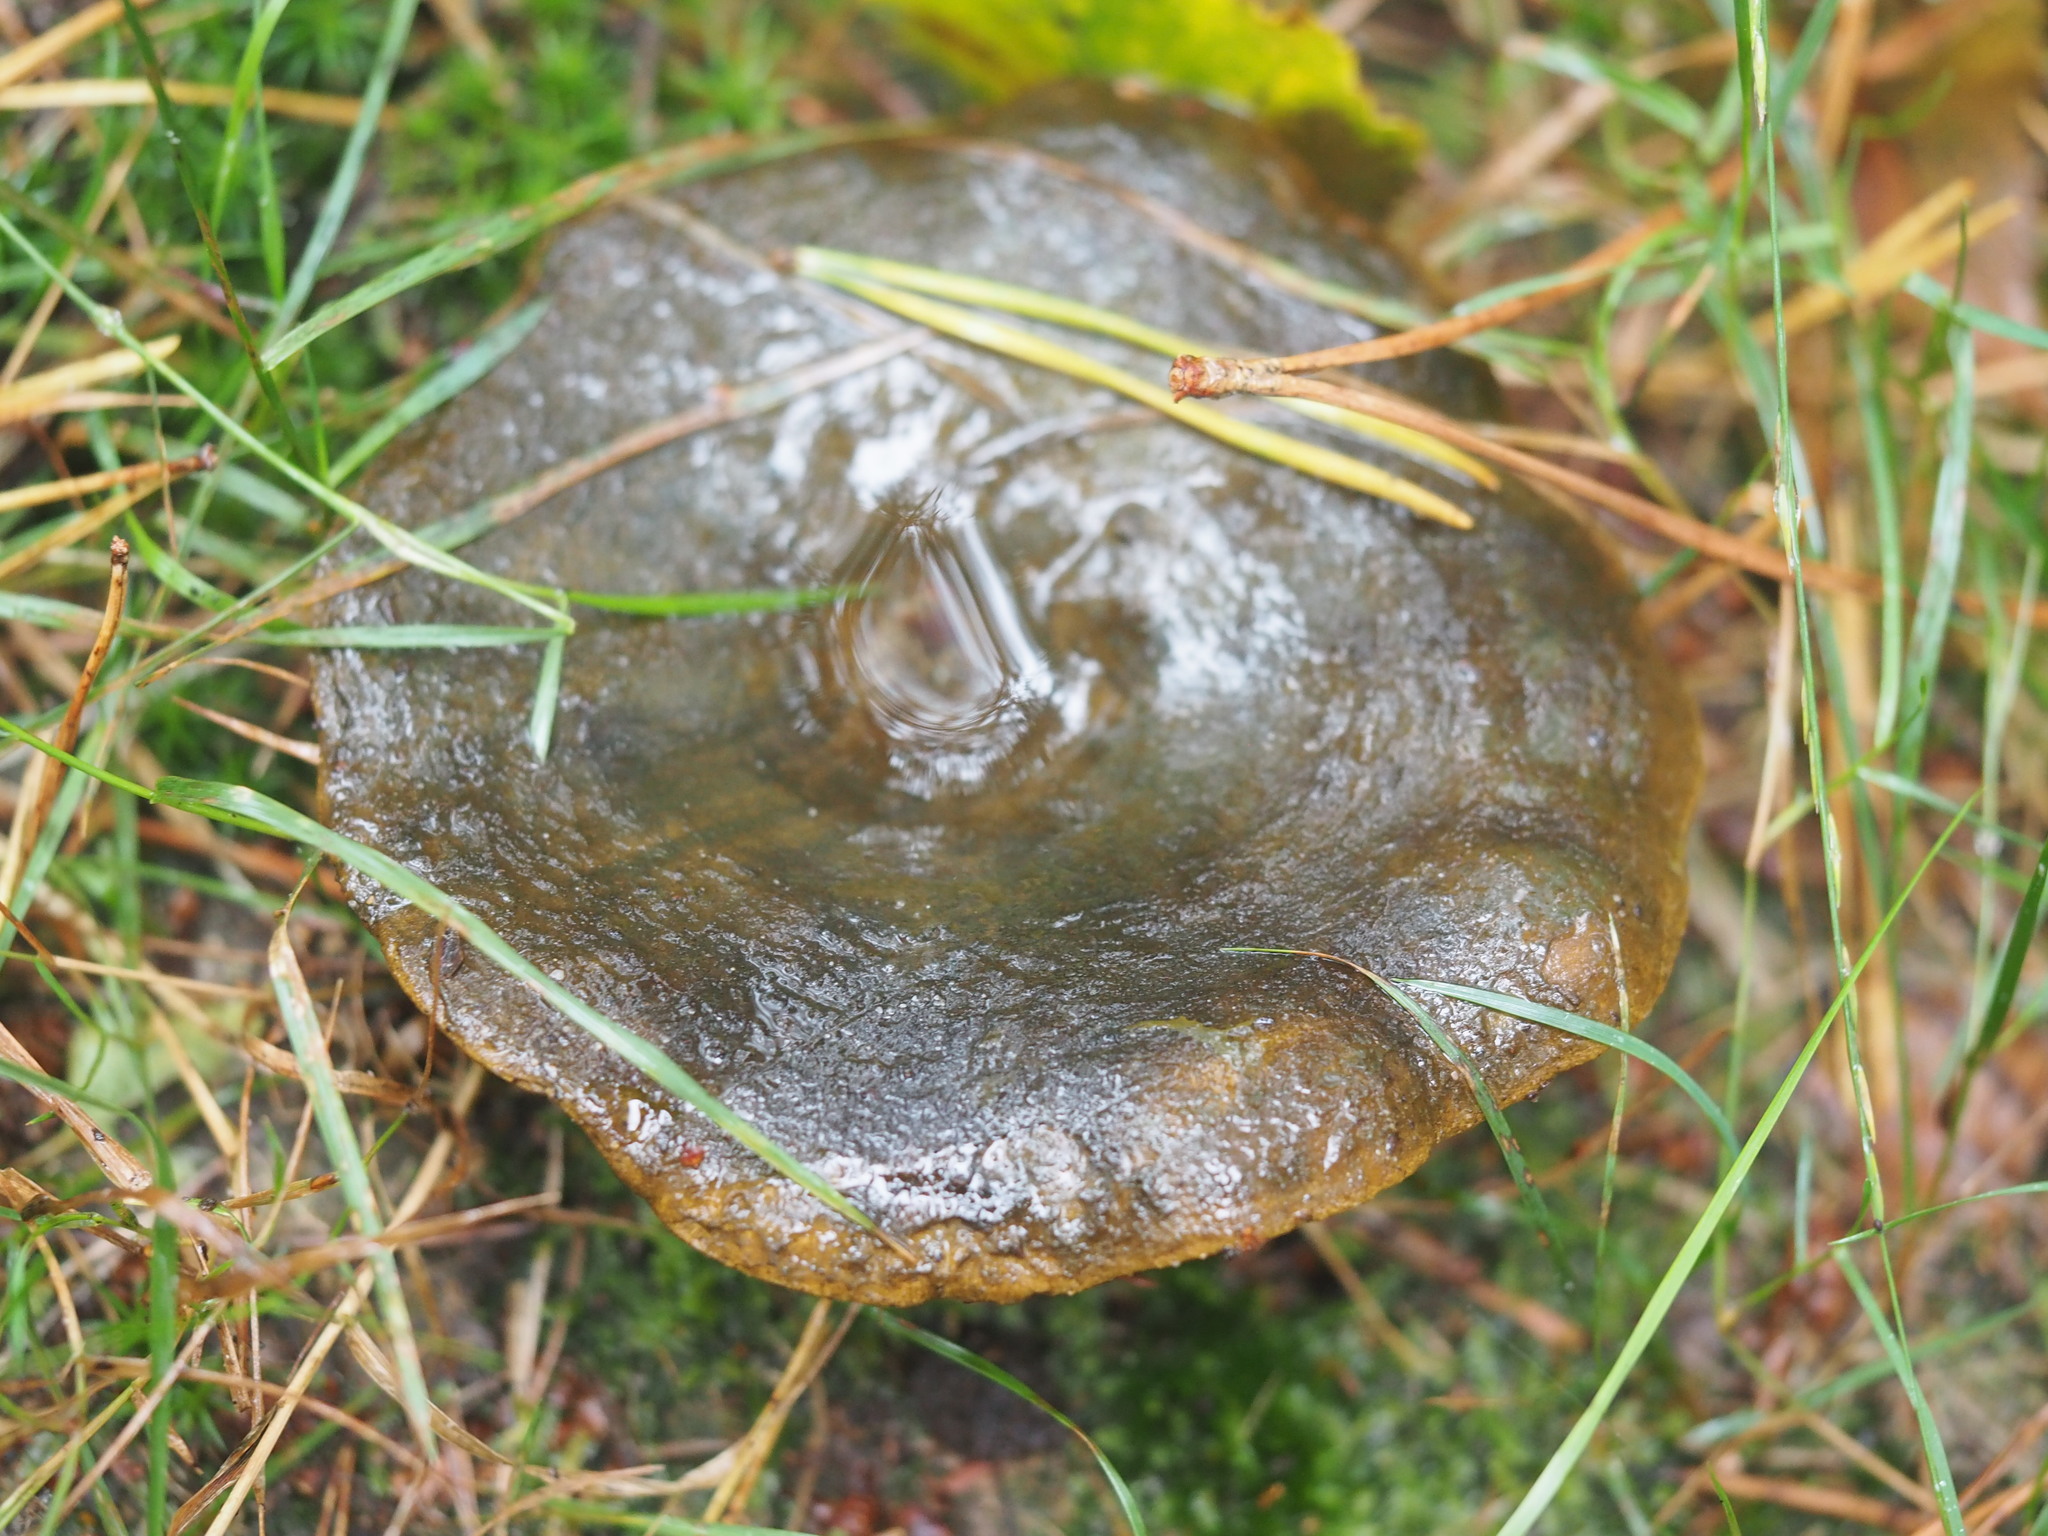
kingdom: Fungi
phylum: Basidiomycota
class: Agaricomycetes
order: Russulales
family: Russulaceae
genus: Lactarius
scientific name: Lactarius turpis
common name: Ugly milk-cap
